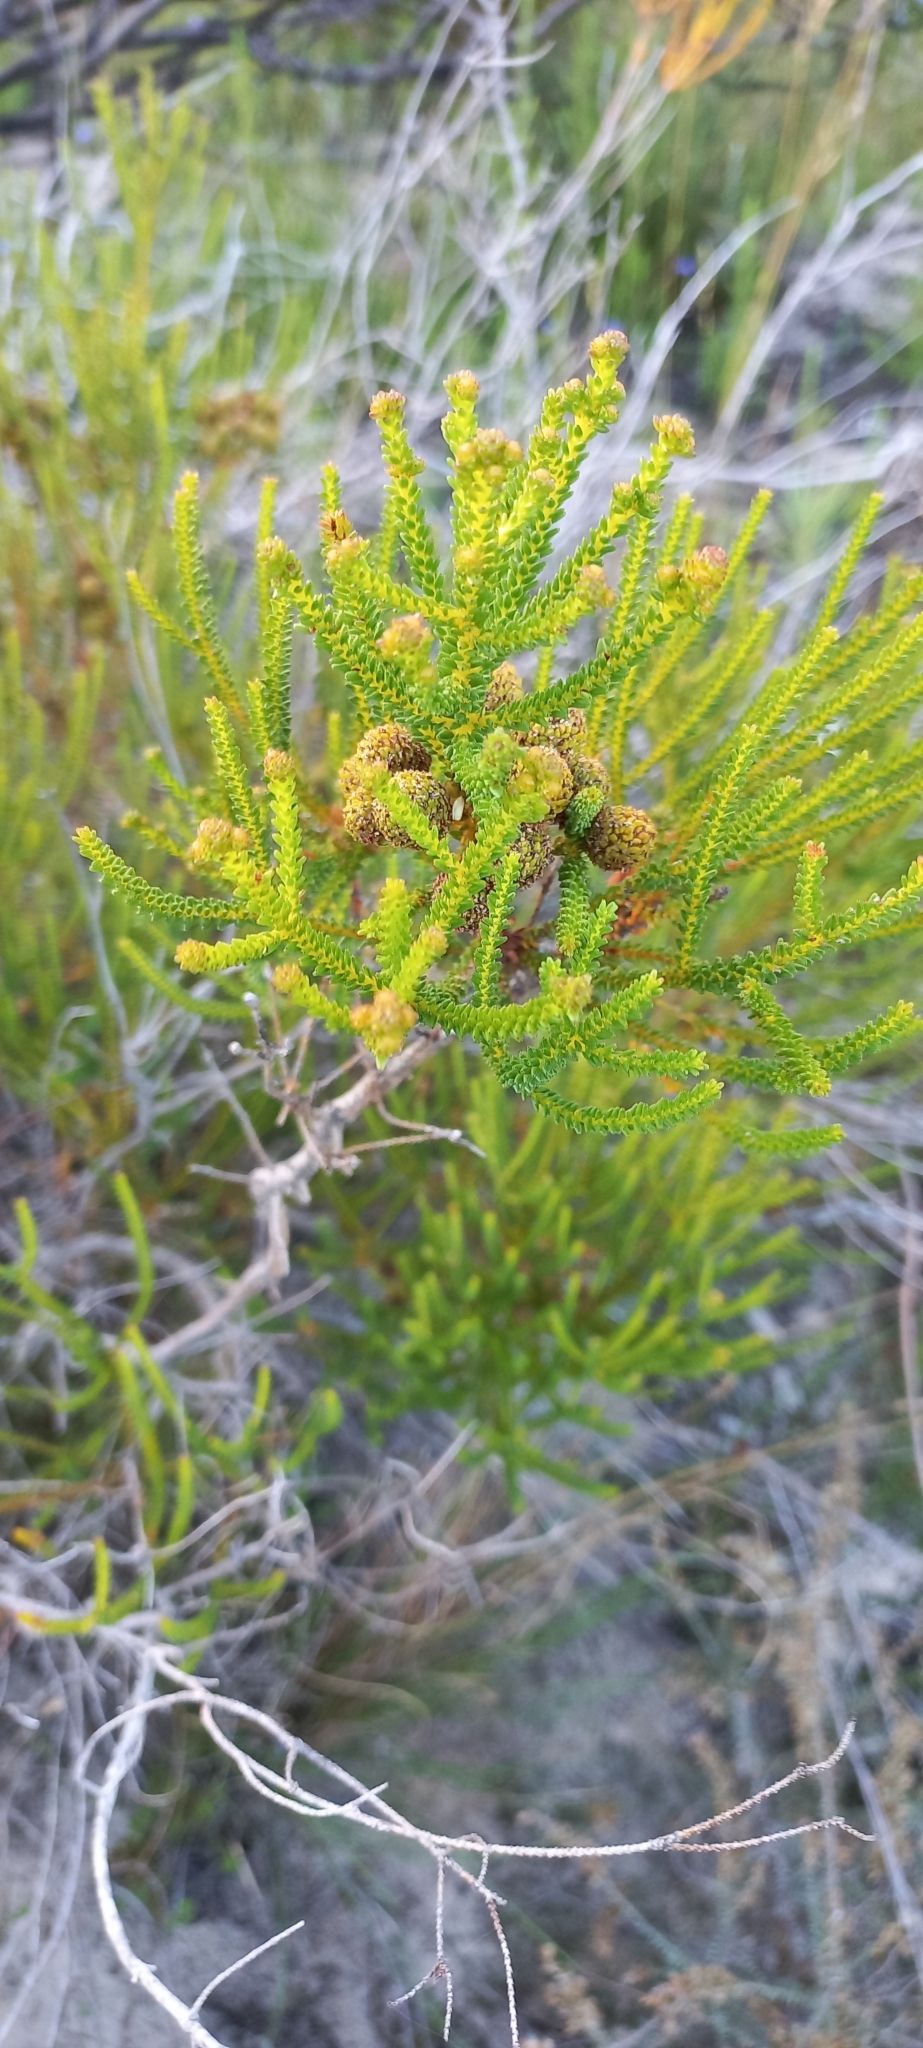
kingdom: Plantae
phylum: Tracheophyta
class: Magnoliopsida
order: Bruniales
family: Bruniaceae
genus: Berzelia
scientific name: Berzelia abrotanoides
